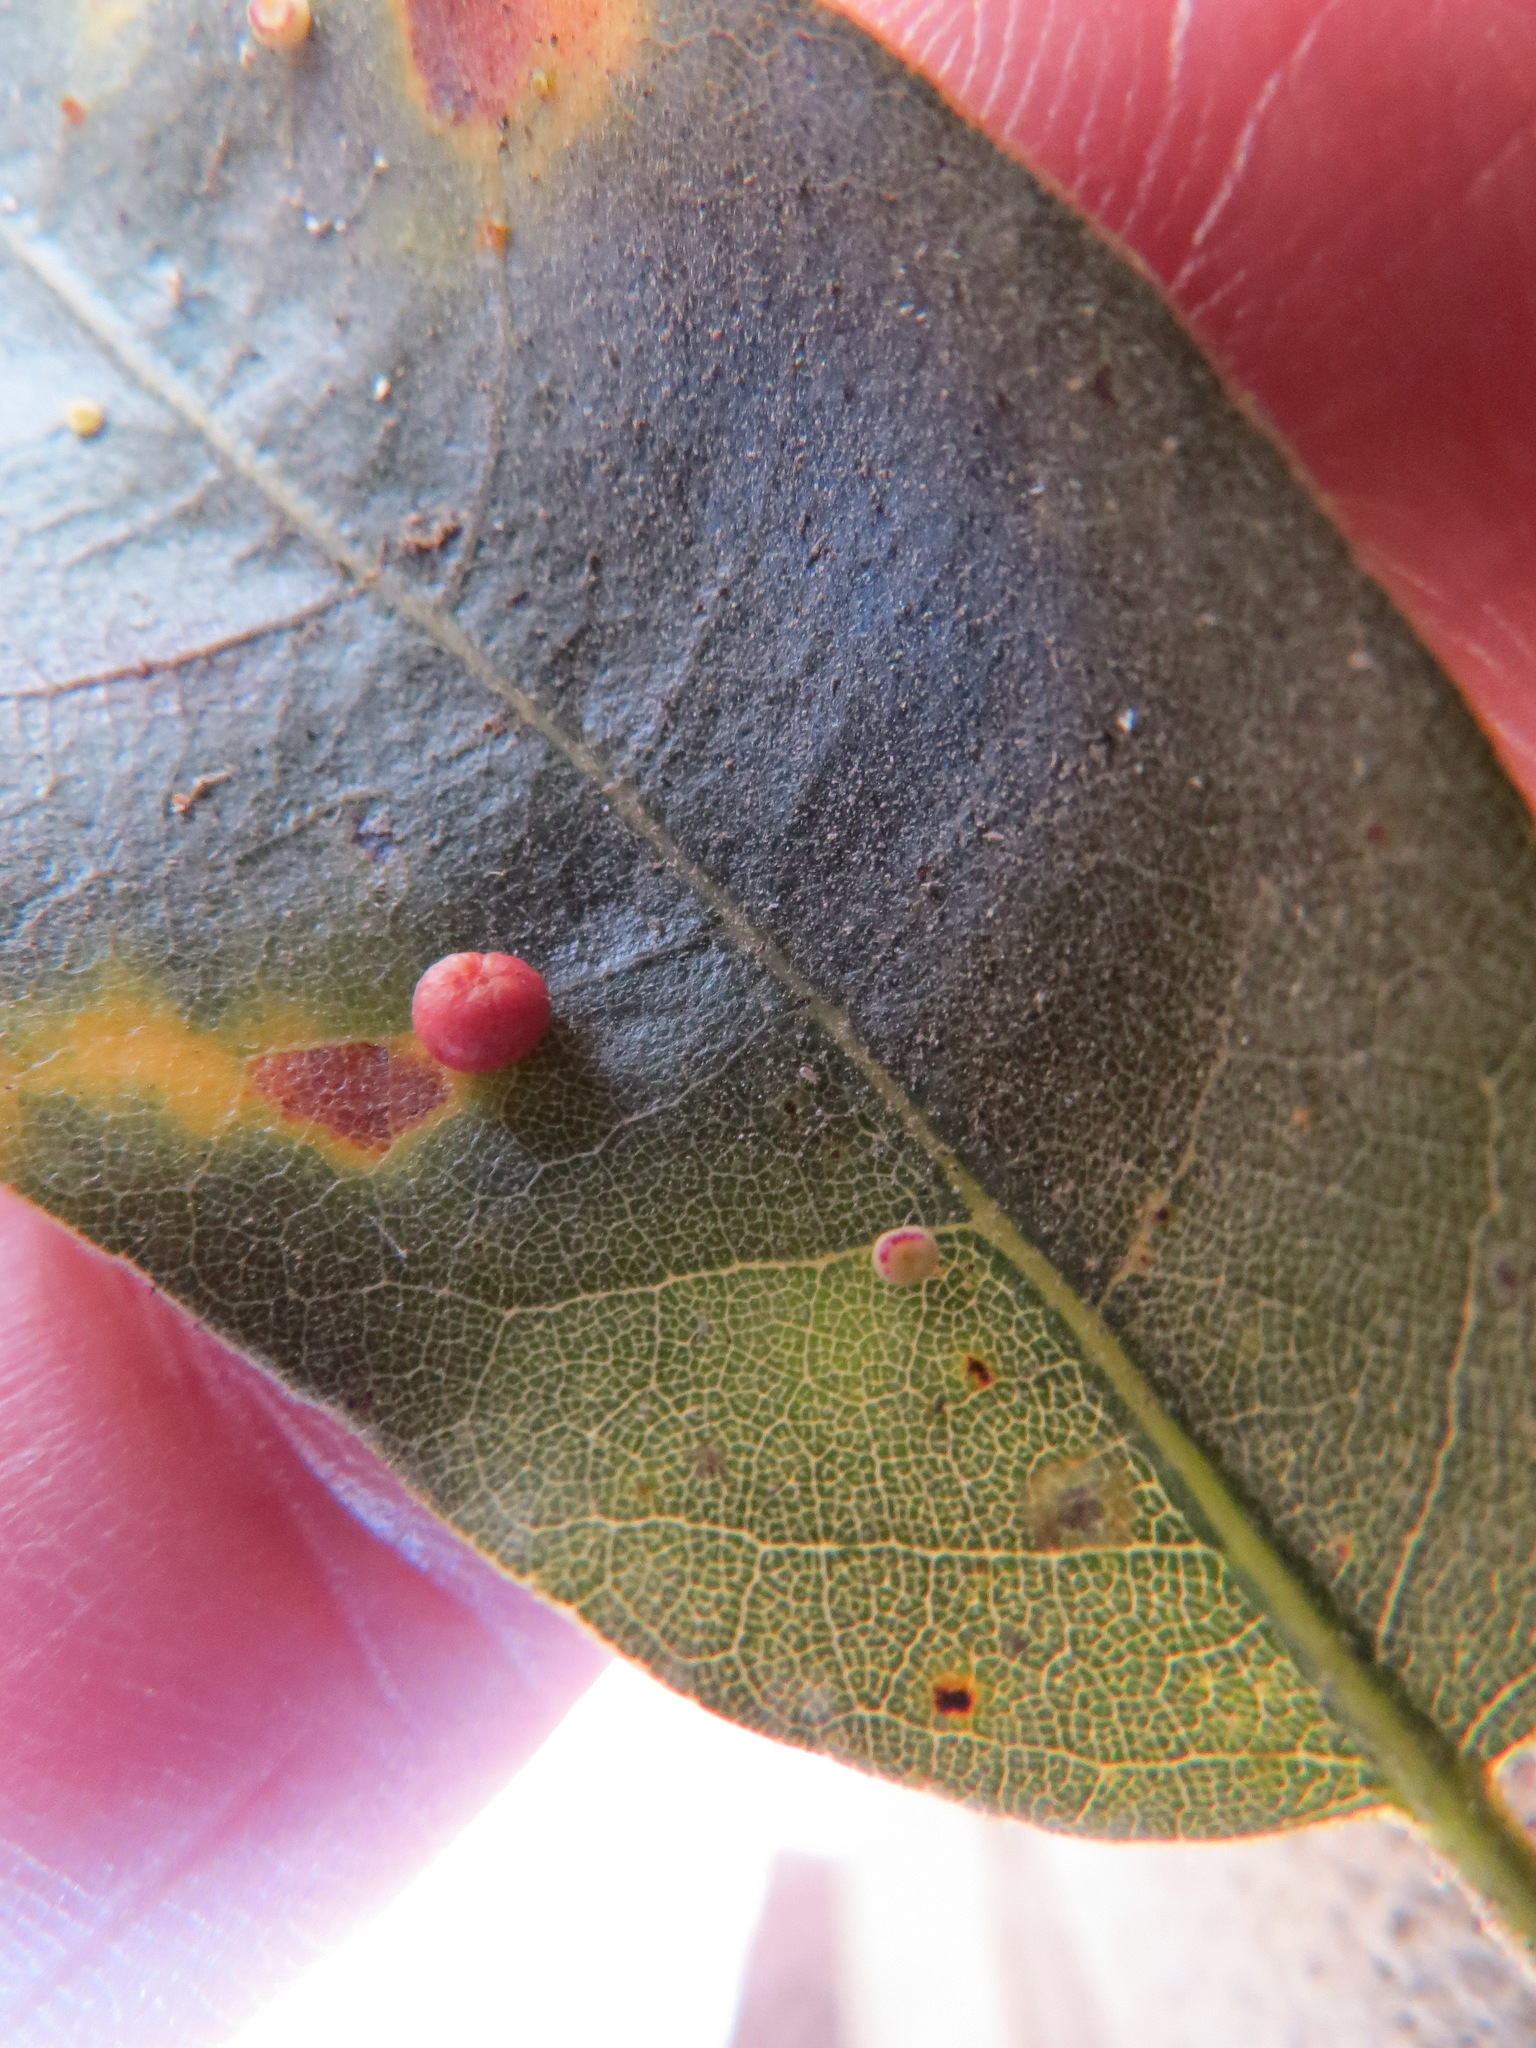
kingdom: Animalia
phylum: Arthropoda
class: Insecta
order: Hymenoptera
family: Cynipidae
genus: Dryocosmus
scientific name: Dryocosmus
